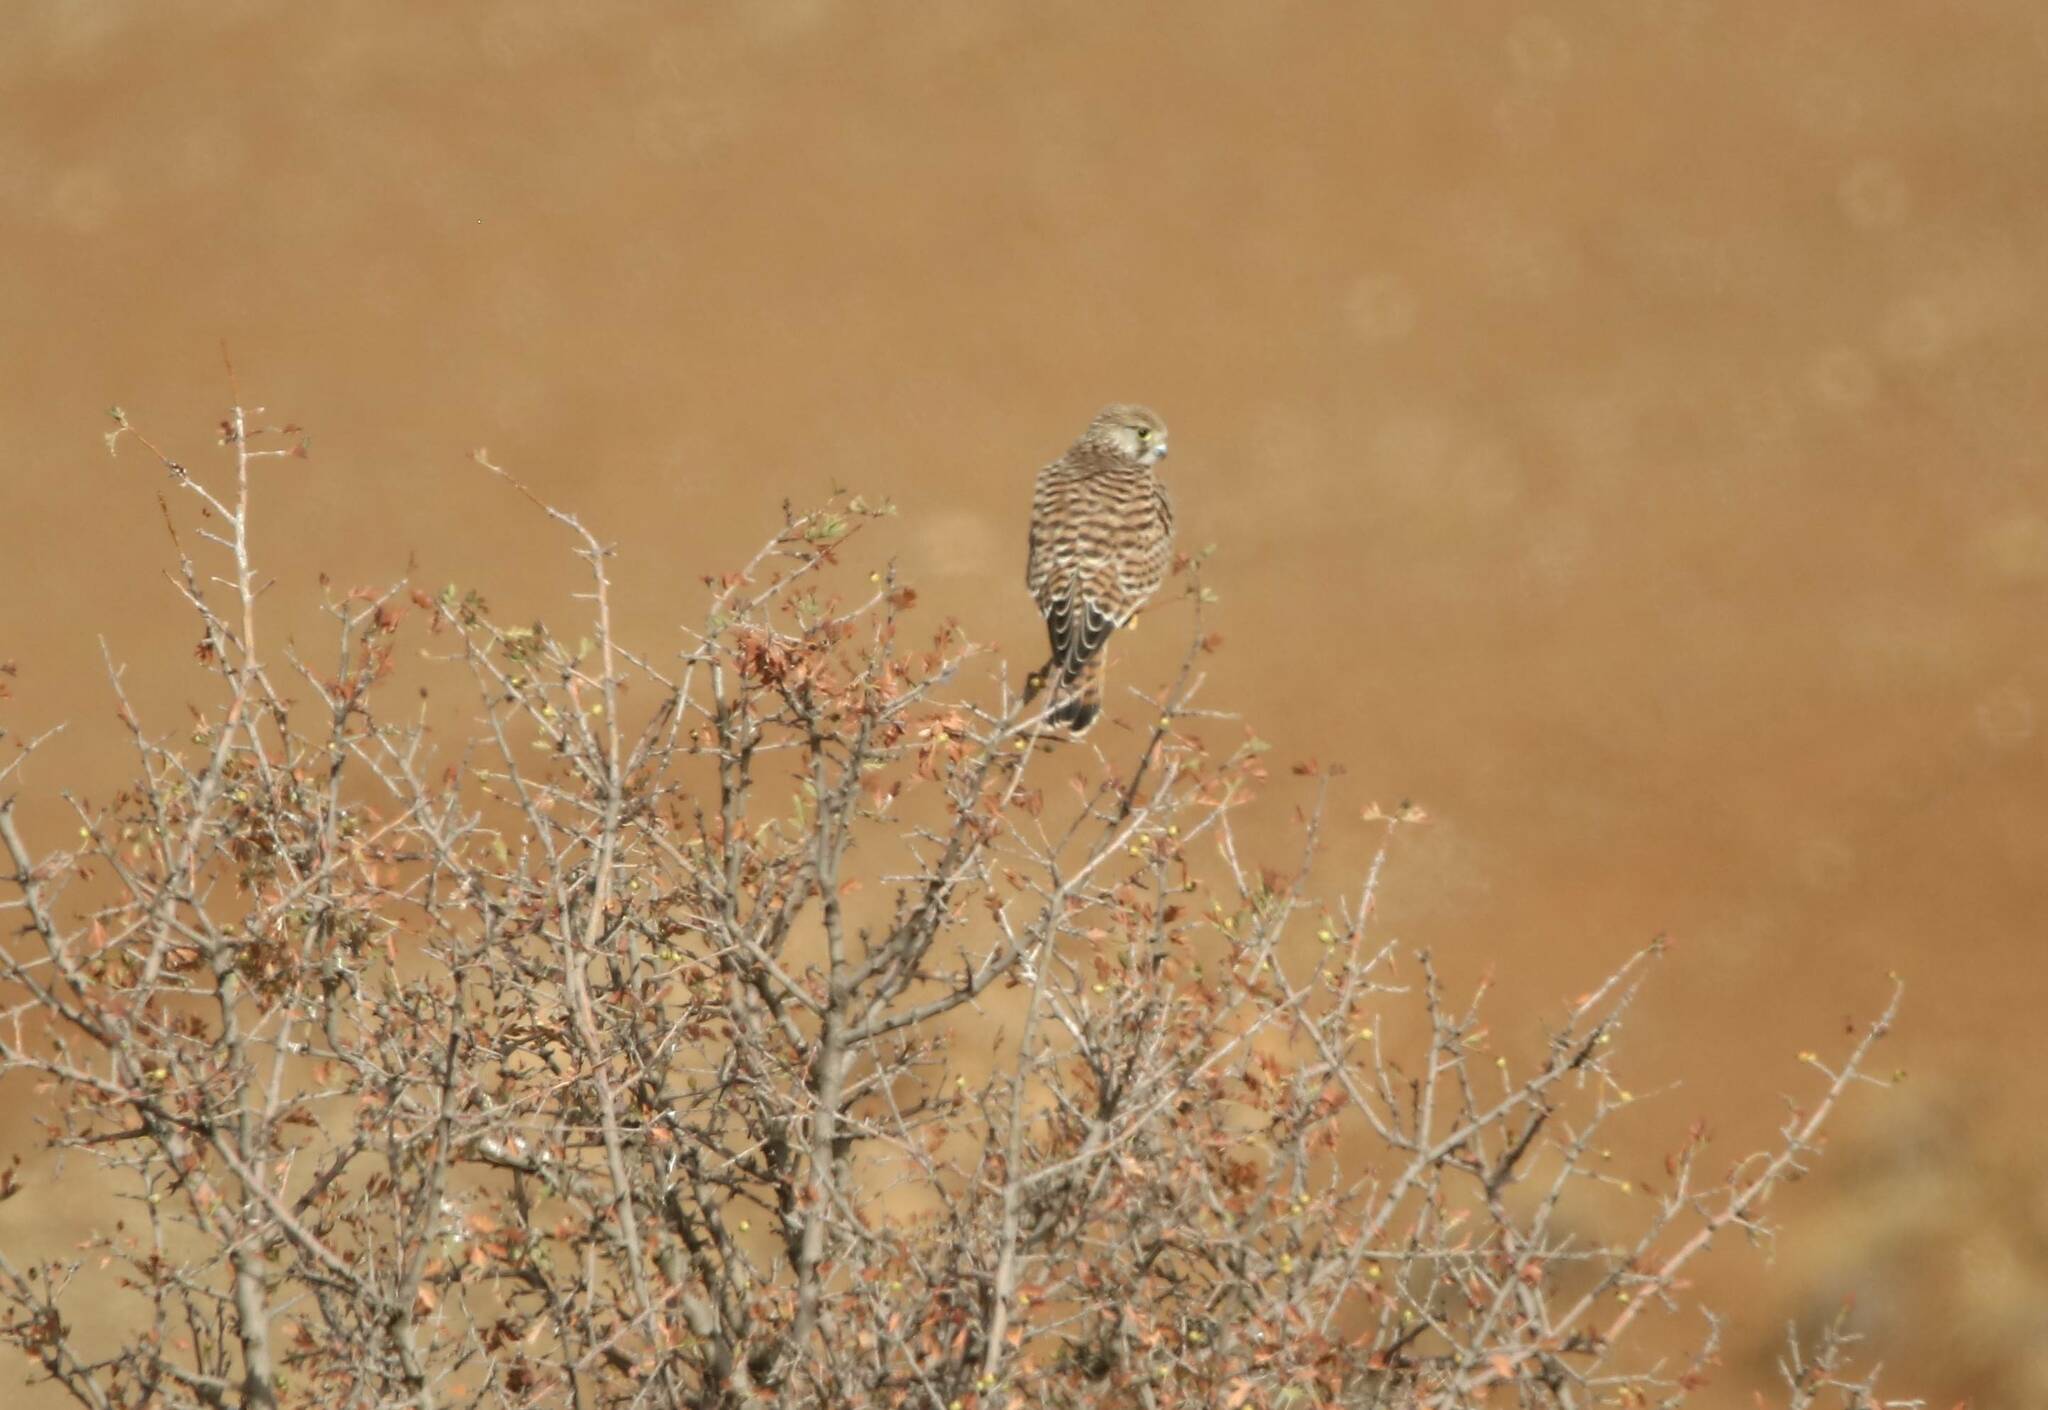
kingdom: Animalia
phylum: Chordata
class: Aves
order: Falconiformes
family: Falconidae
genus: Falco
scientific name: Falco tinnunculus
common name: Common kestrel
